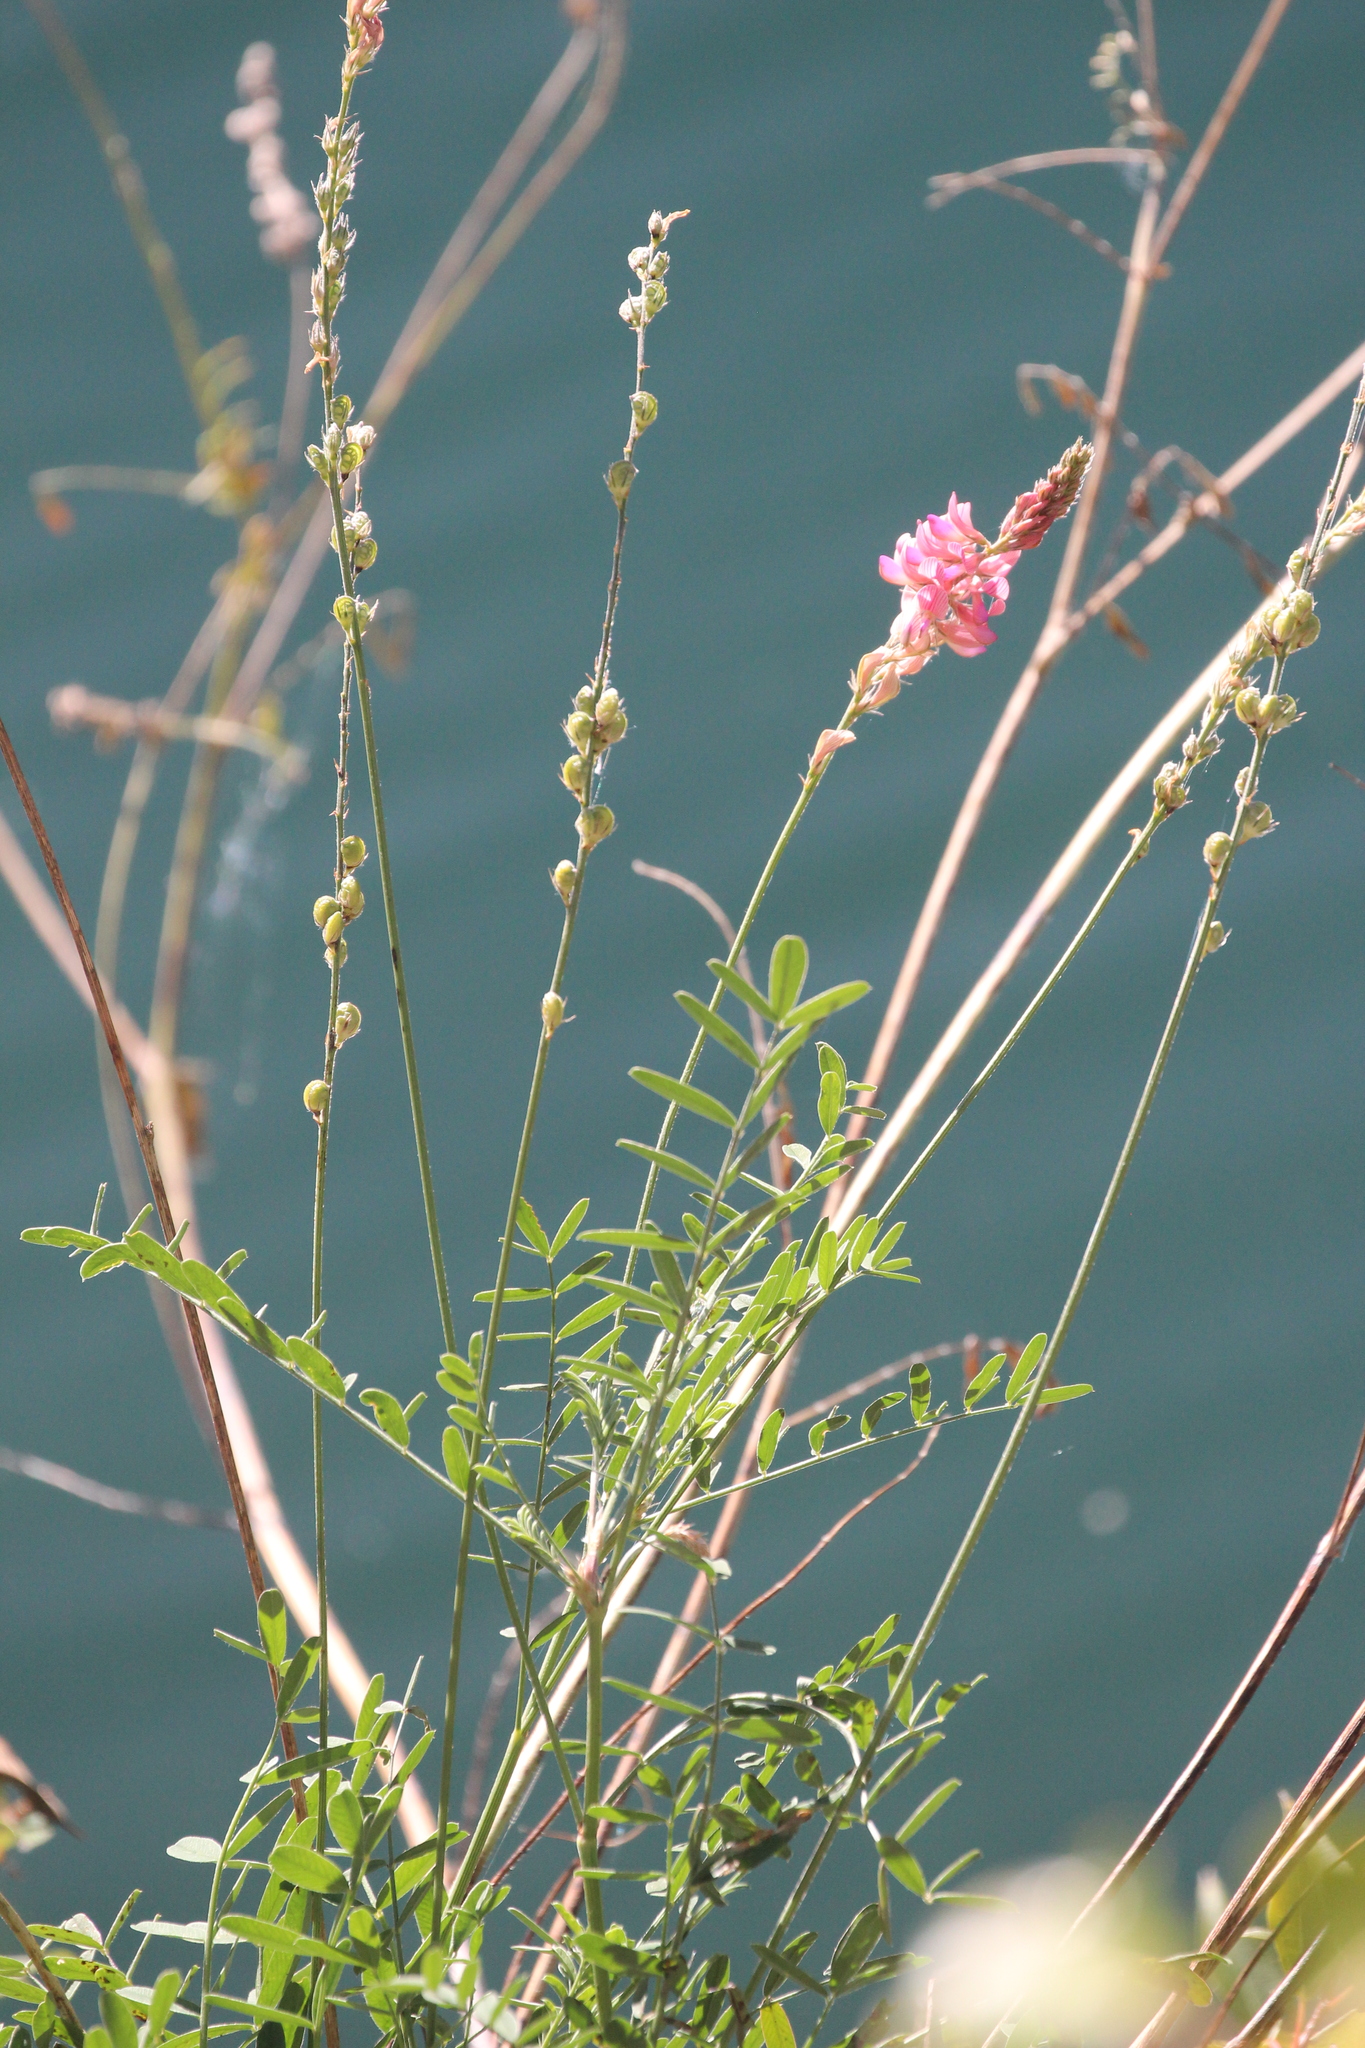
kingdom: Plantae
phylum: Tracheophyta
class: Magnoliopsida
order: Fabales
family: Fabaceae
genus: Onobrychis
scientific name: Onobrychis viciifolia
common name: Sainfoin
